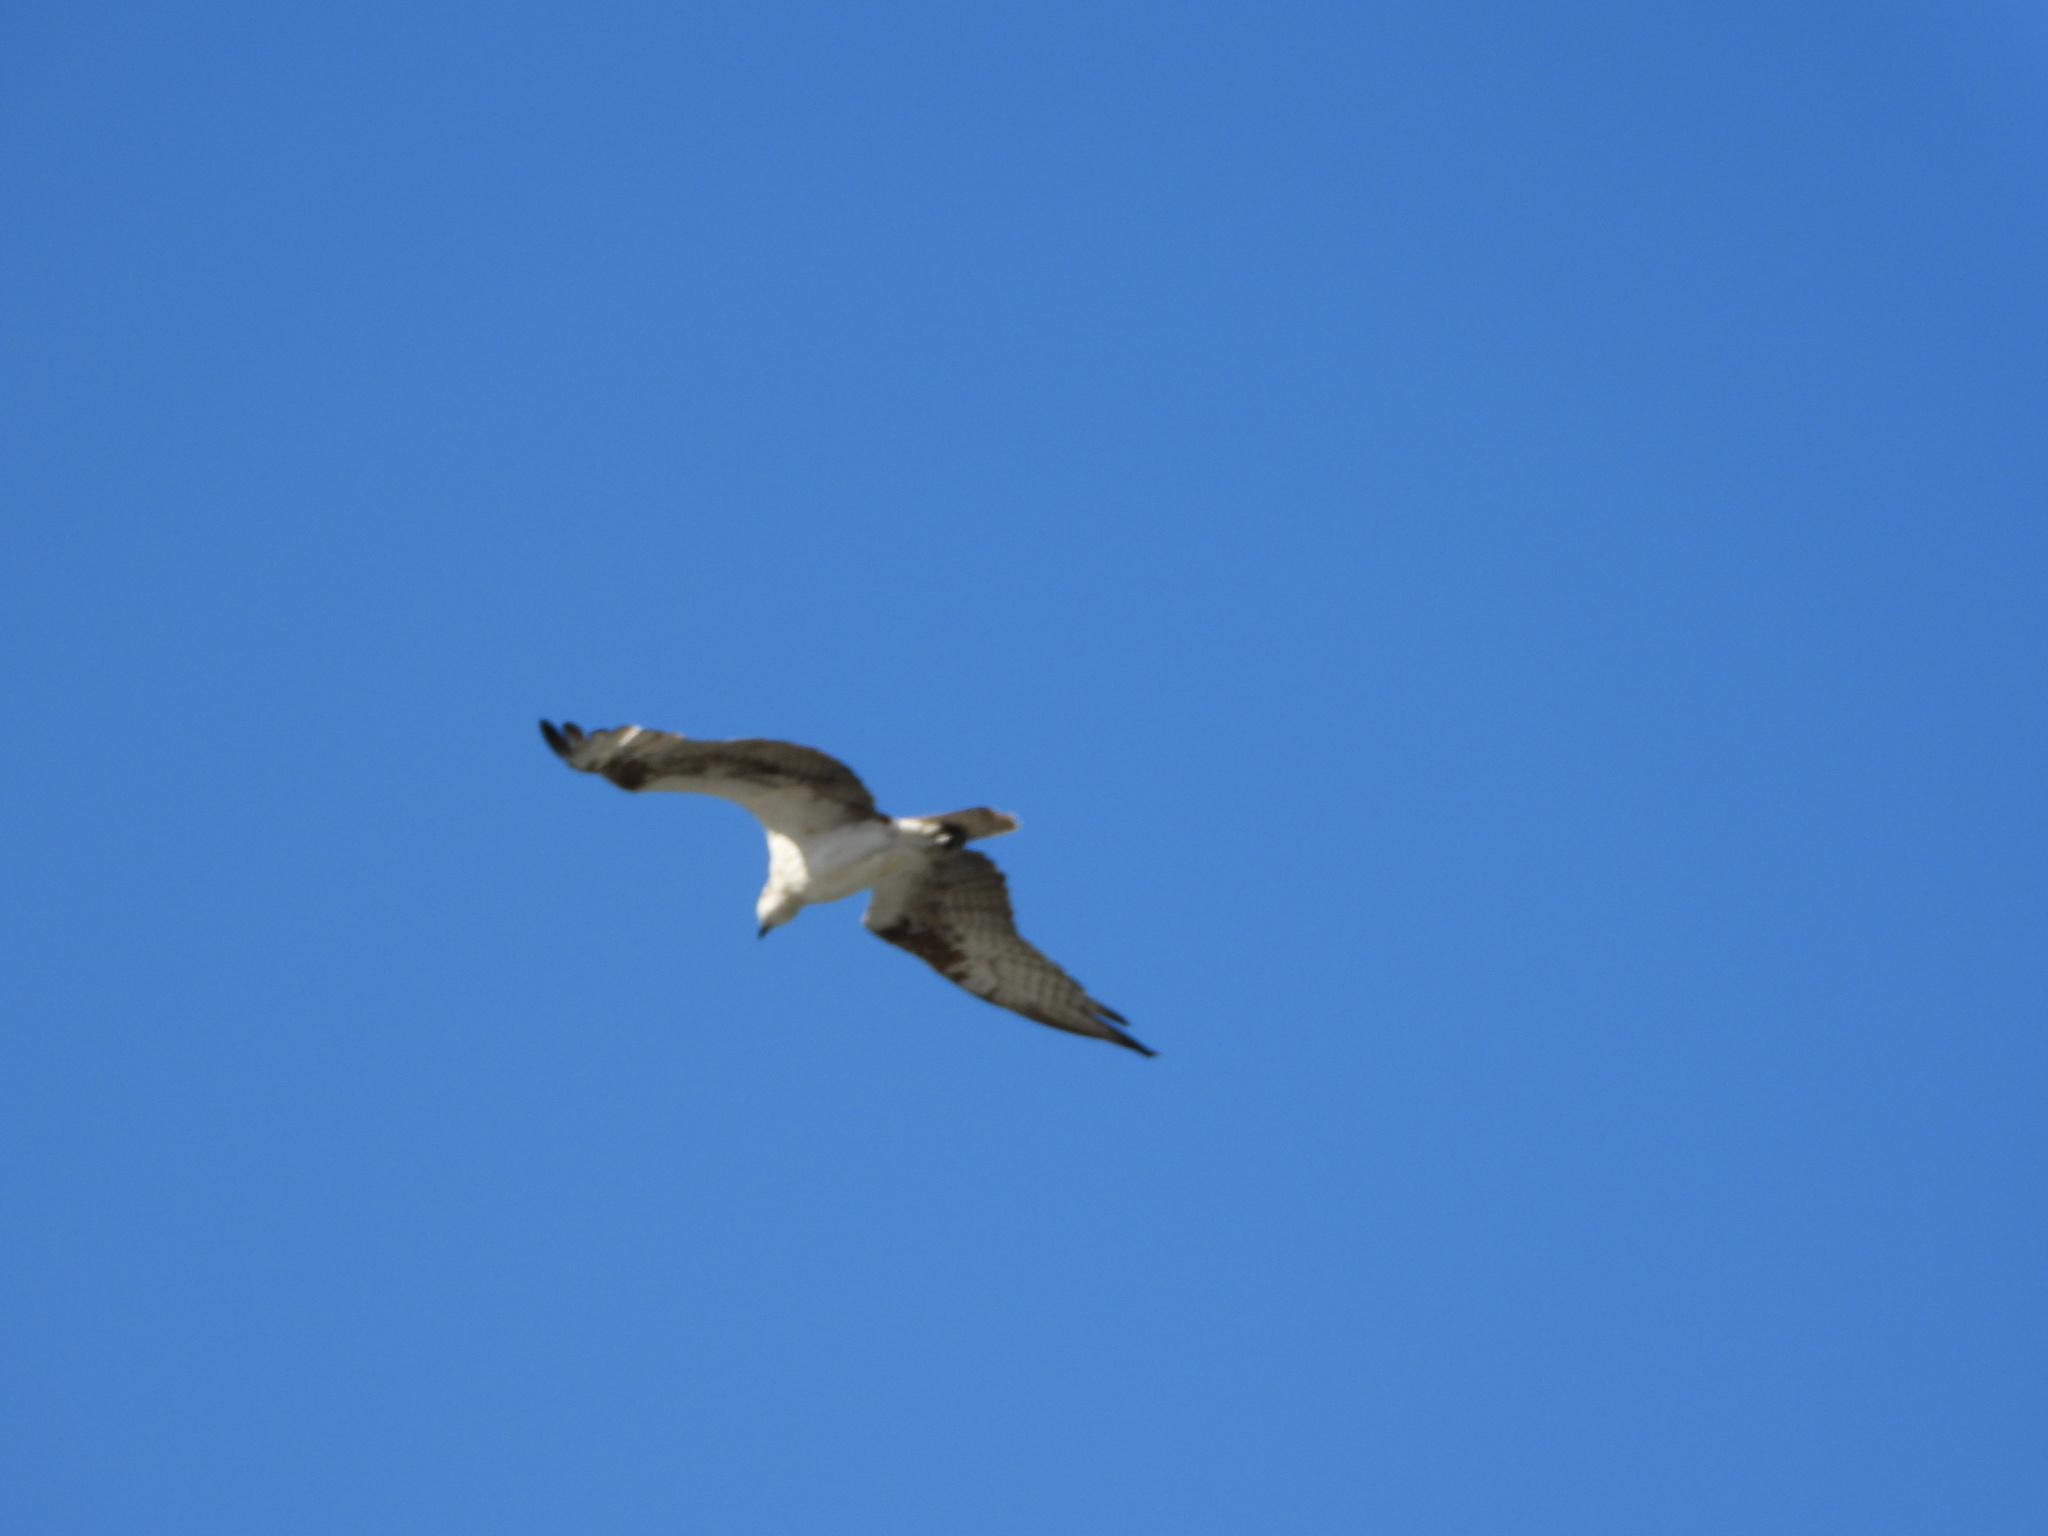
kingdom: Animalia
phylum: Chordata
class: Aves
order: Accipitriformes
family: Pandionidae
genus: Pandion
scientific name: Pandion haliaetus
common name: Osprey
